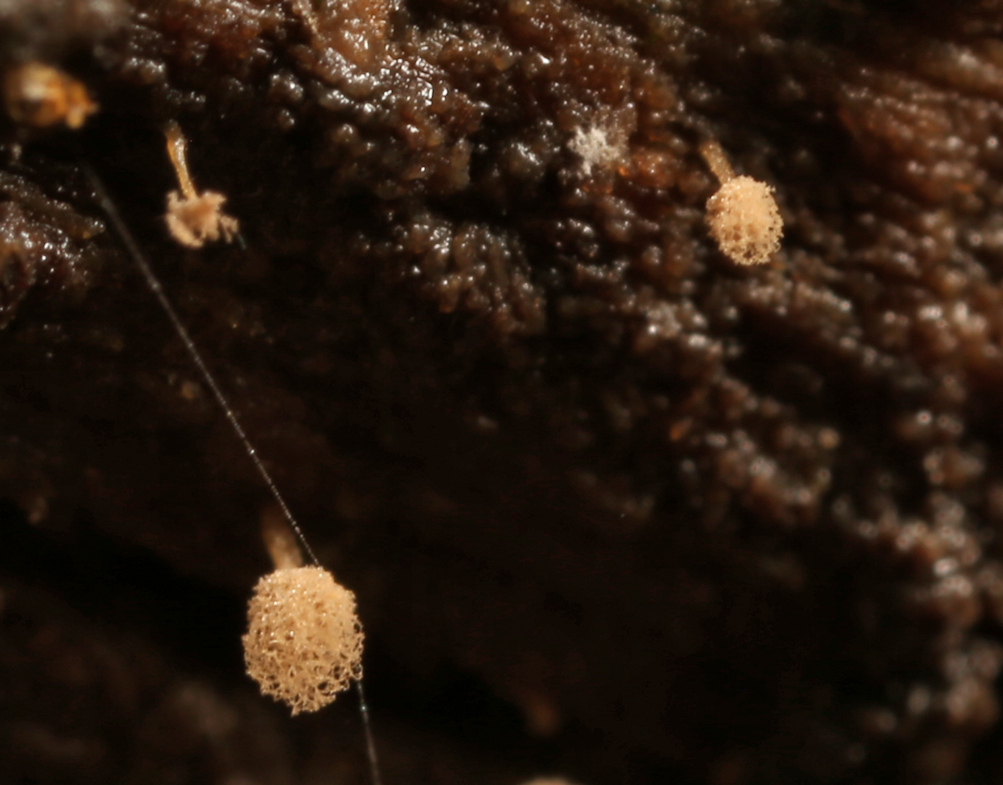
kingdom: Protozoa
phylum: Mycetozoa
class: Myxomycetes
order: Trichiales
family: Arcyriaceae
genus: Arcyria
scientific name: Arcyria obvelata
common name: Yellow carnival candy slime
